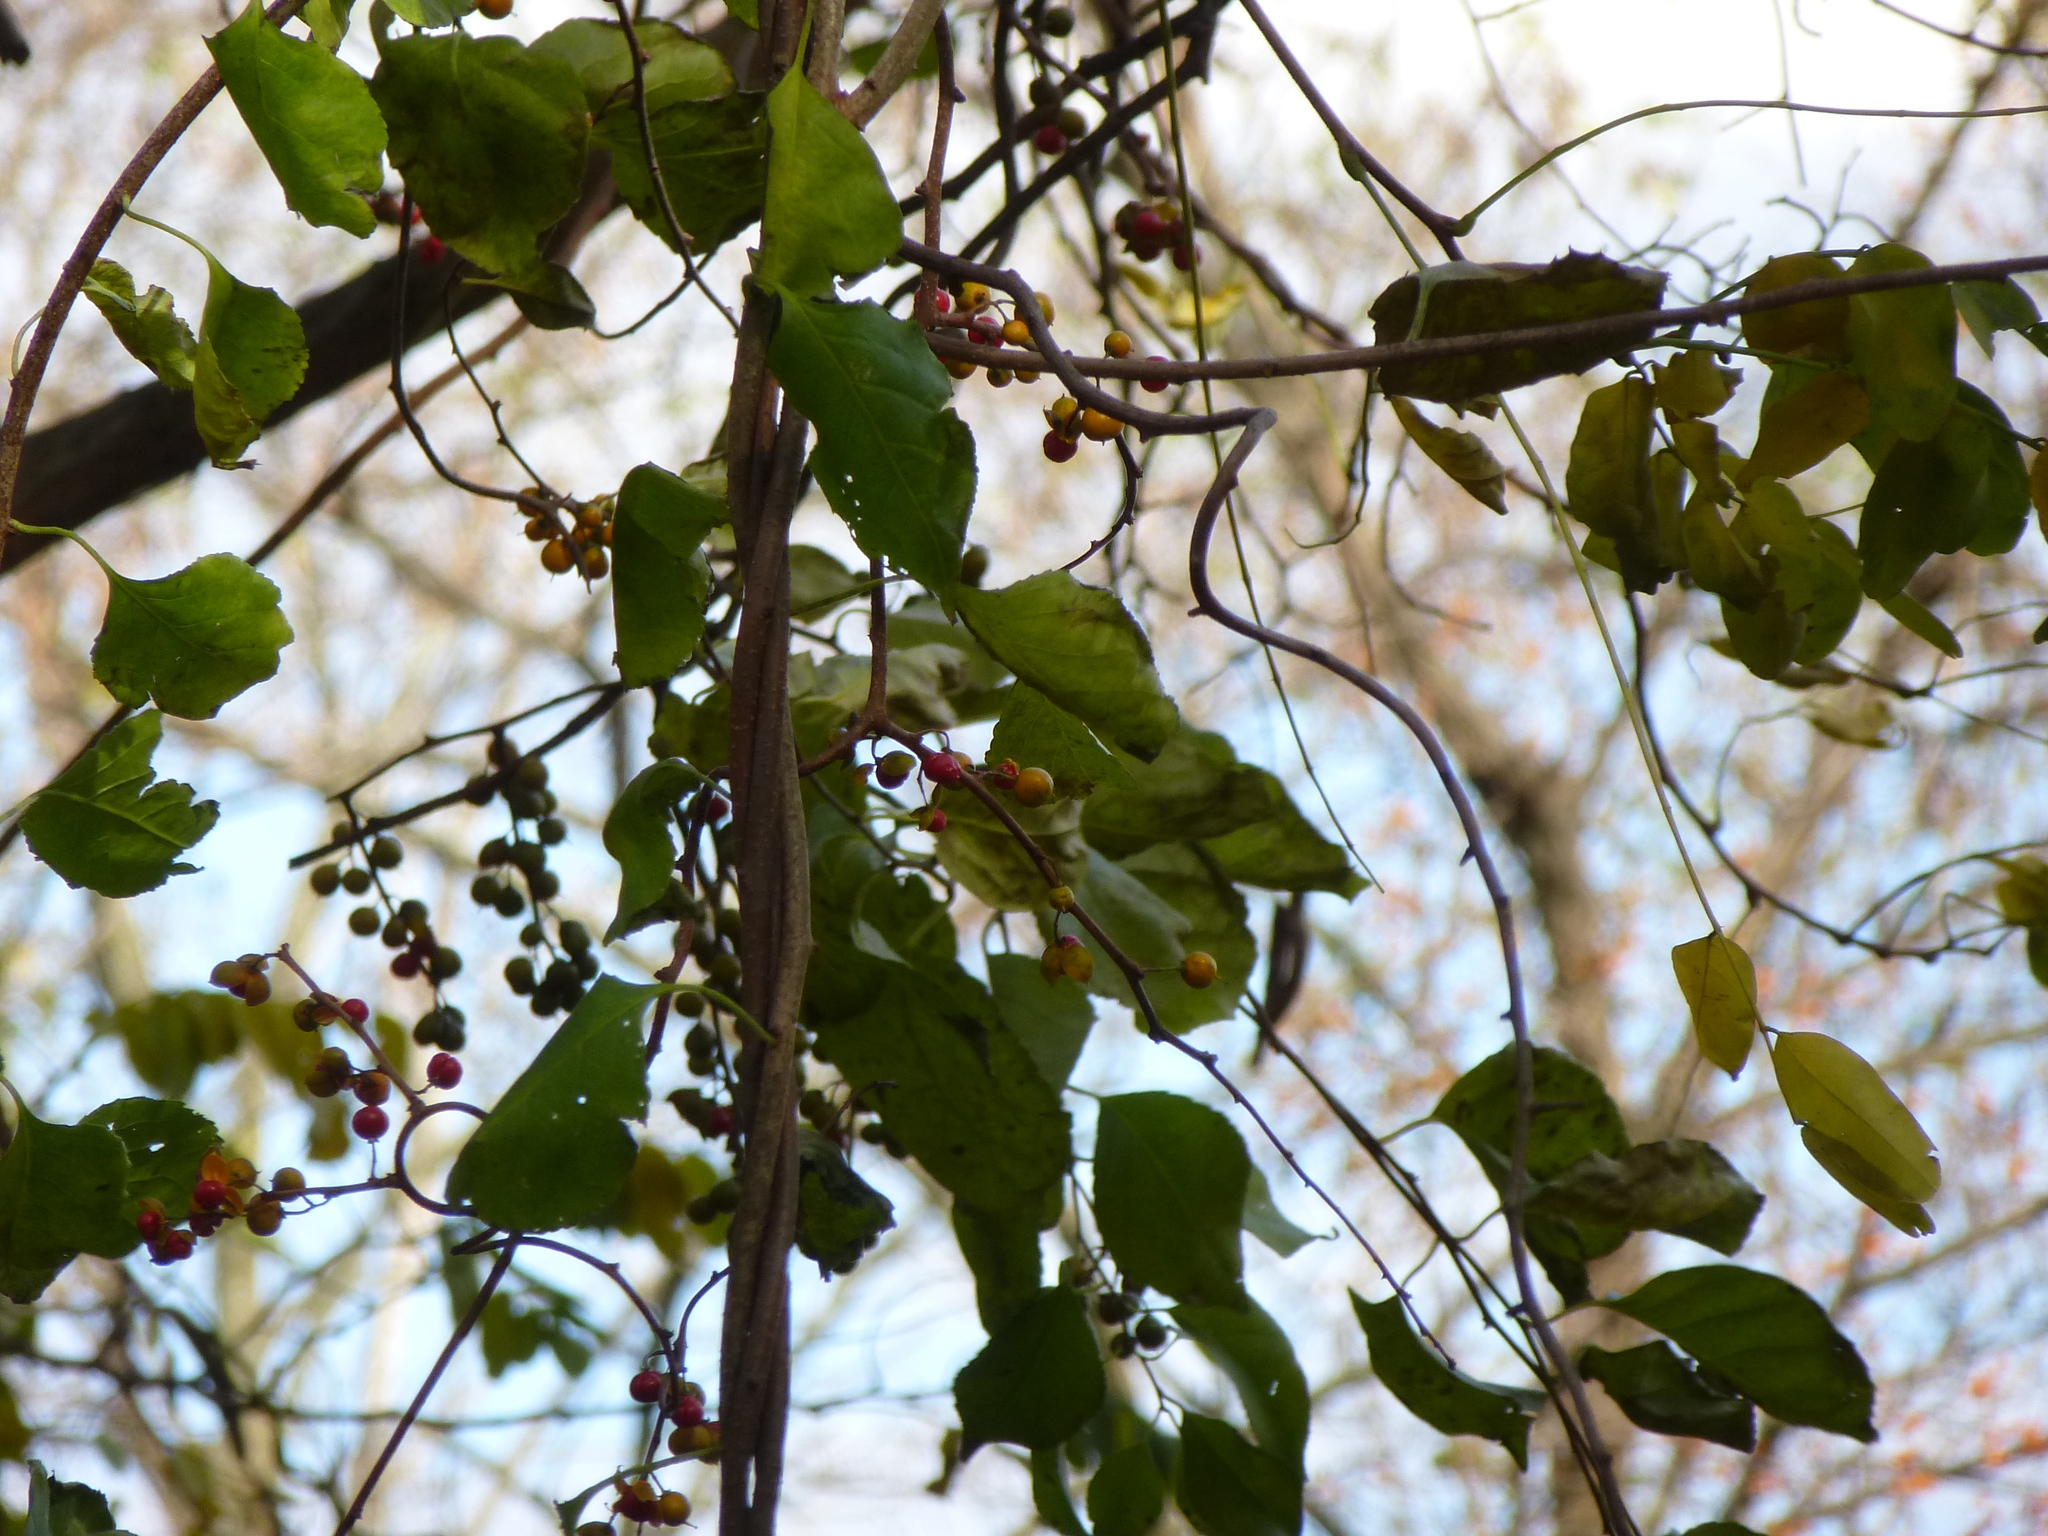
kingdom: Plantae
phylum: Tracheophyta
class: Magnoliopsida
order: Celastrales
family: Celastraceae
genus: Celastrus
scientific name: Celastrus orbiculatus
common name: Oriental bittersweet
